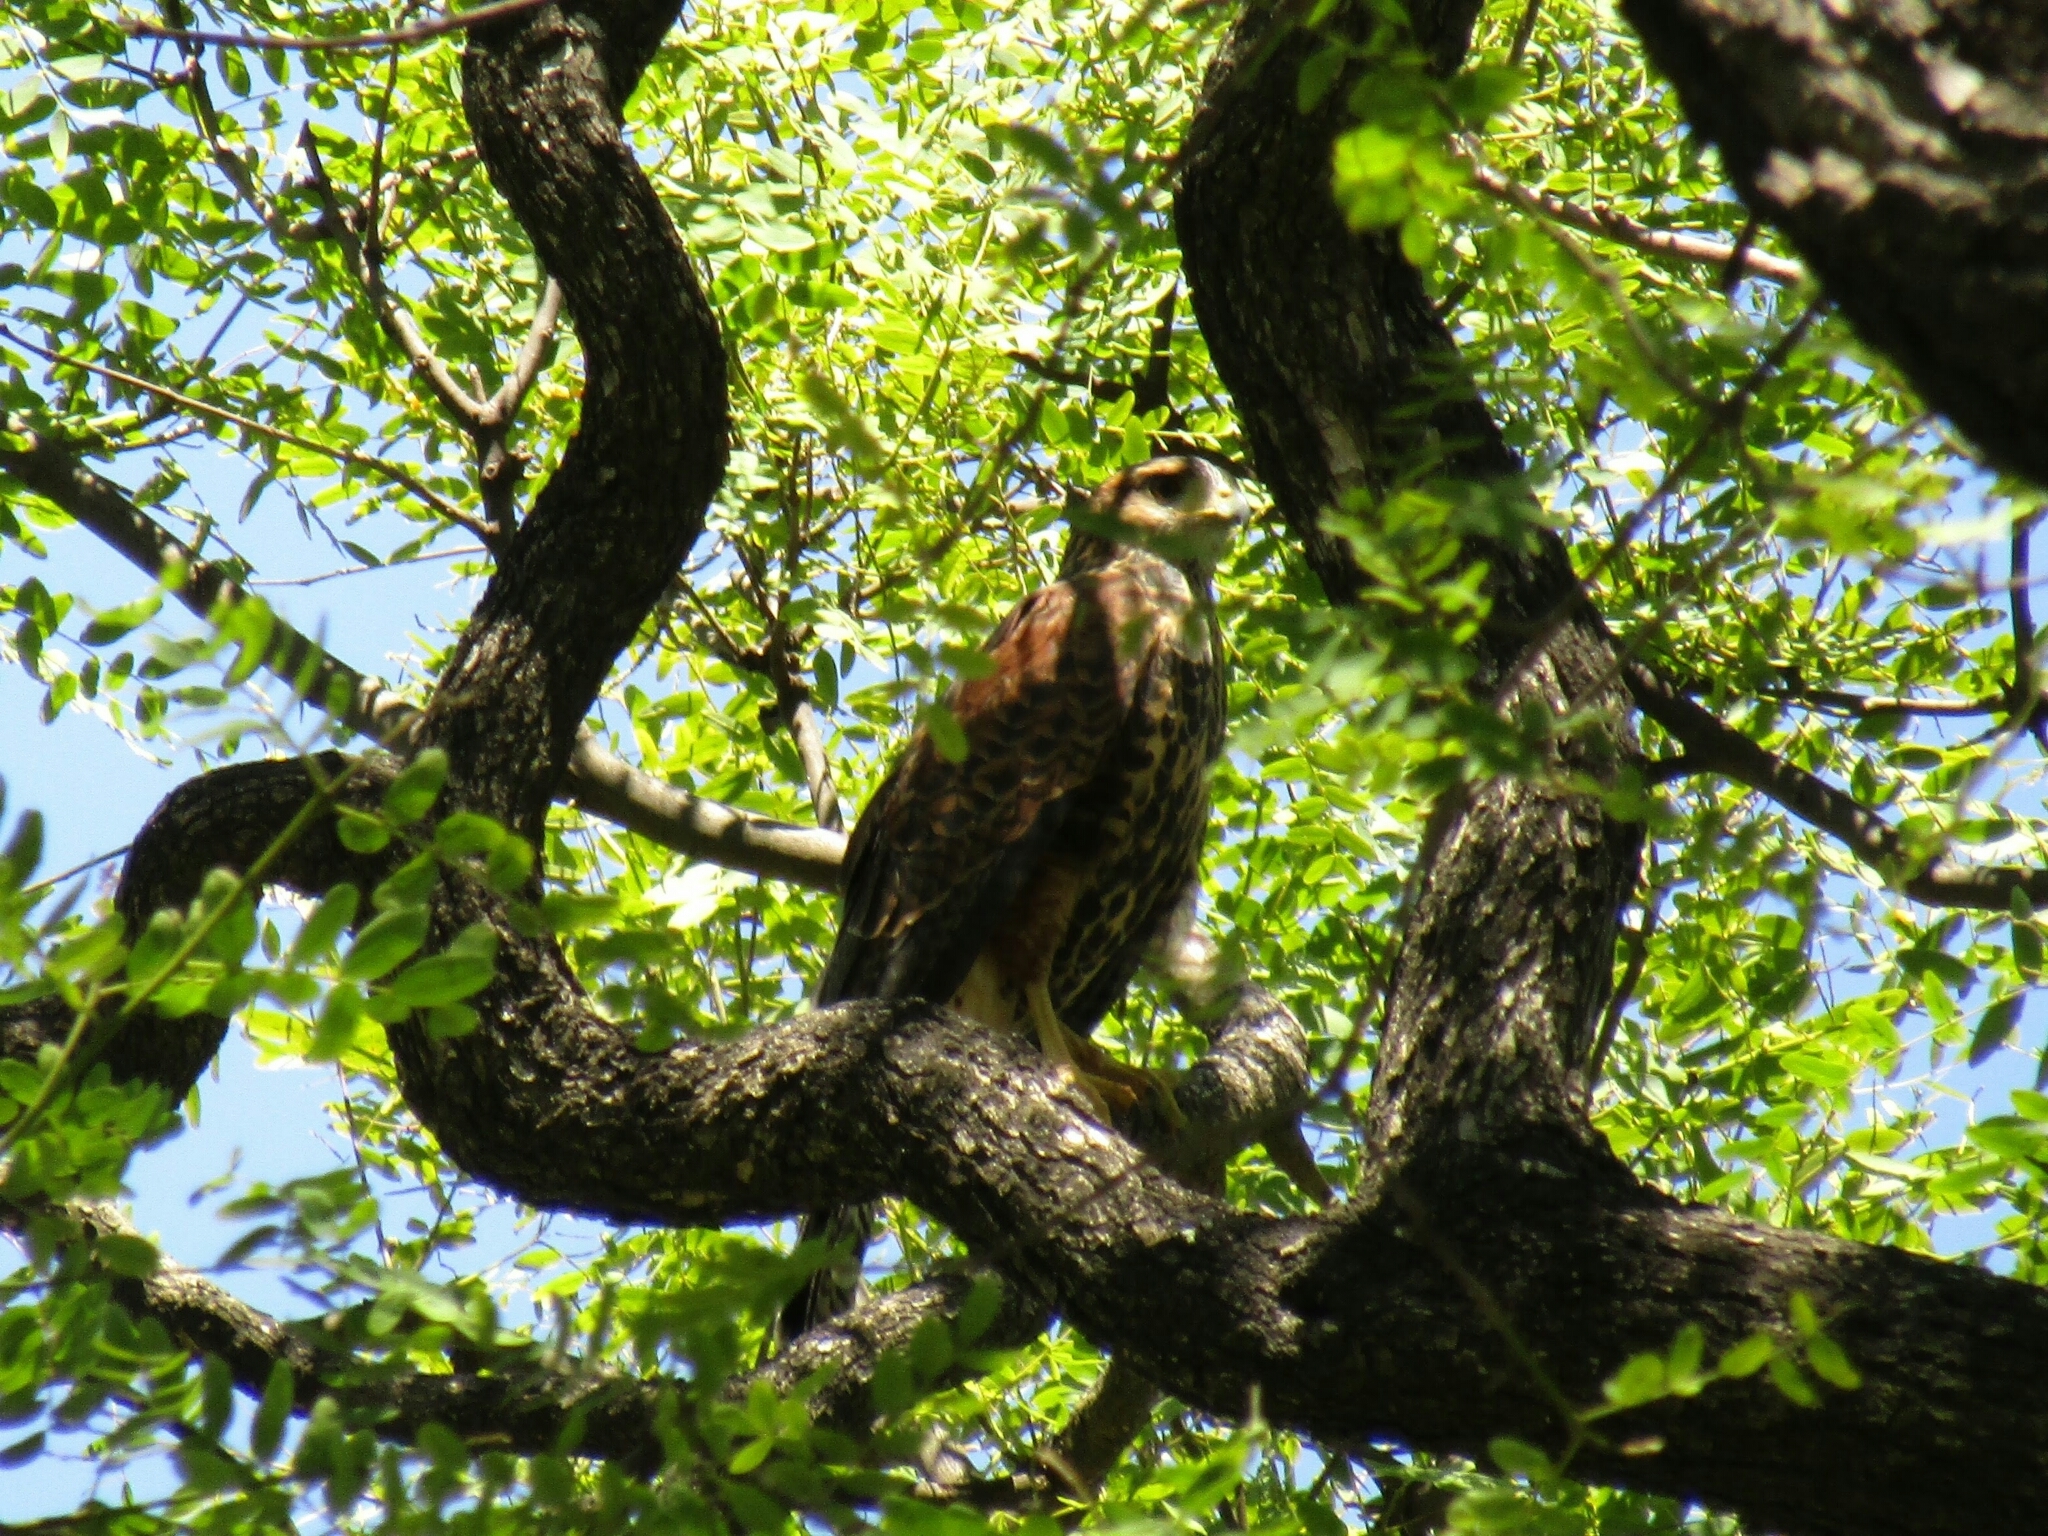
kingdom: Animalia
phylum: Chordata
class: Aves
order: Accipitriformes
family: Accipitridae
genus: Parabuteo
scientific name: Parabuteo unicinctus
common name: Harris's hawk
